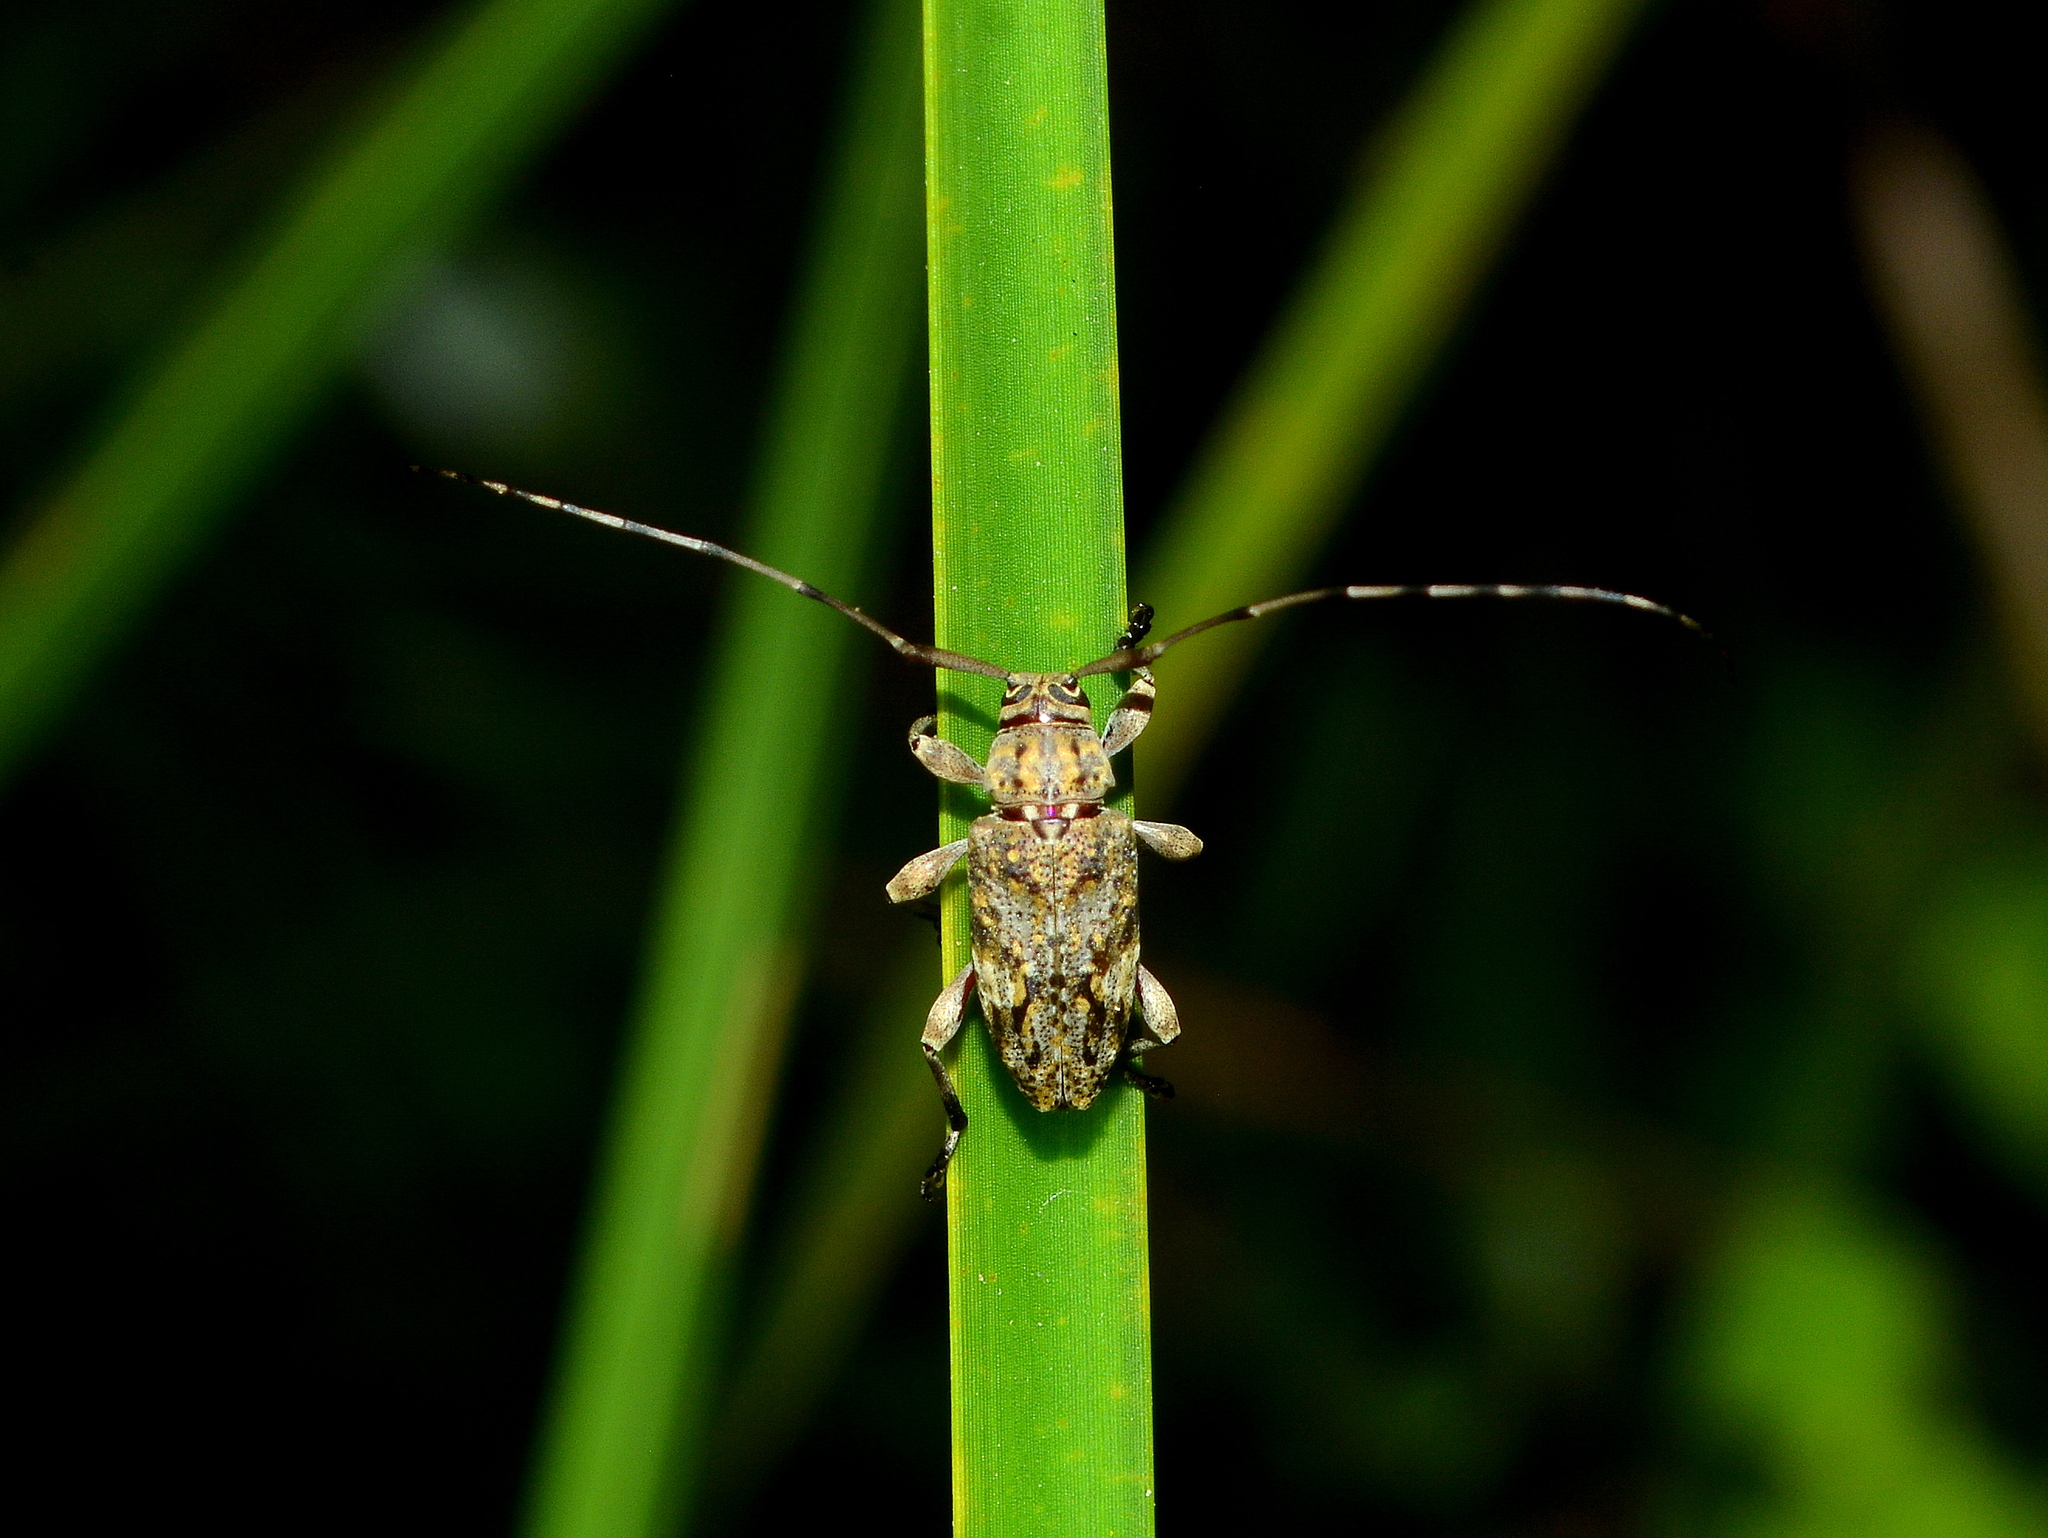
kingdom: Animalia
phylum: Arthropoda
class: Insecta
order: Coleoptera
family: Cerambycidae
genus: Nyssodrysina
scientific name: Nyssodrysina lignaria
